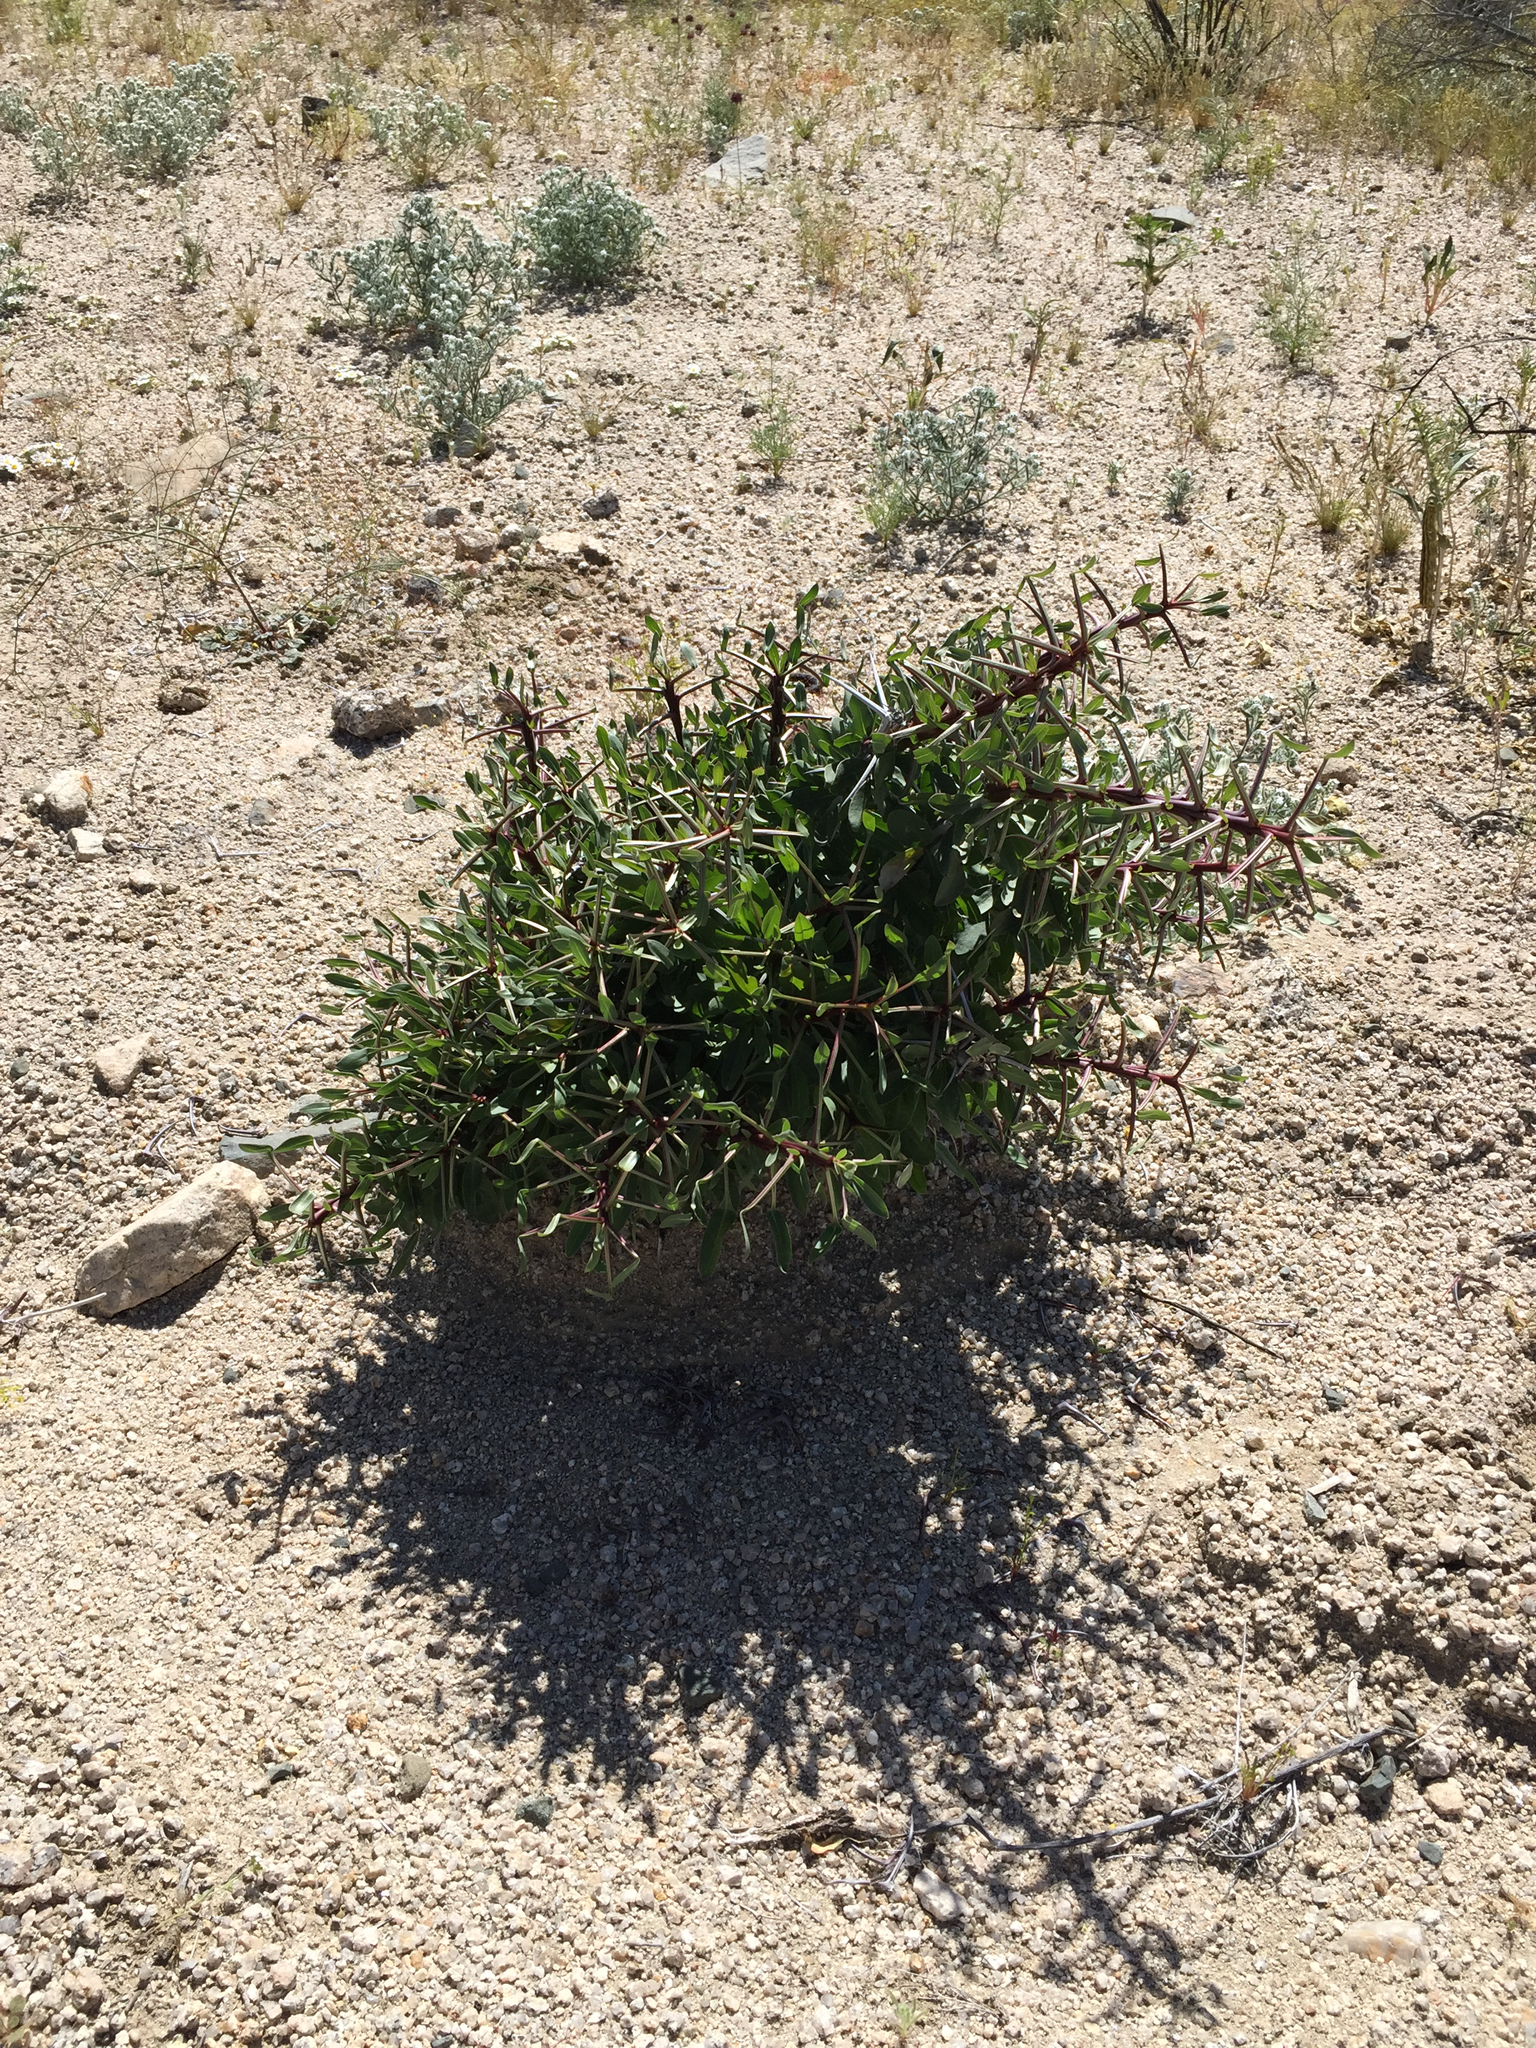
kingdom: Plantae
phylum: Tracheophyta
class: Magnoliopsida
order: Ericales
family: Fouquieriaceae
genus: Fouquieria
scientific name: Fouquieria splendens
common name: Vine-cactus
